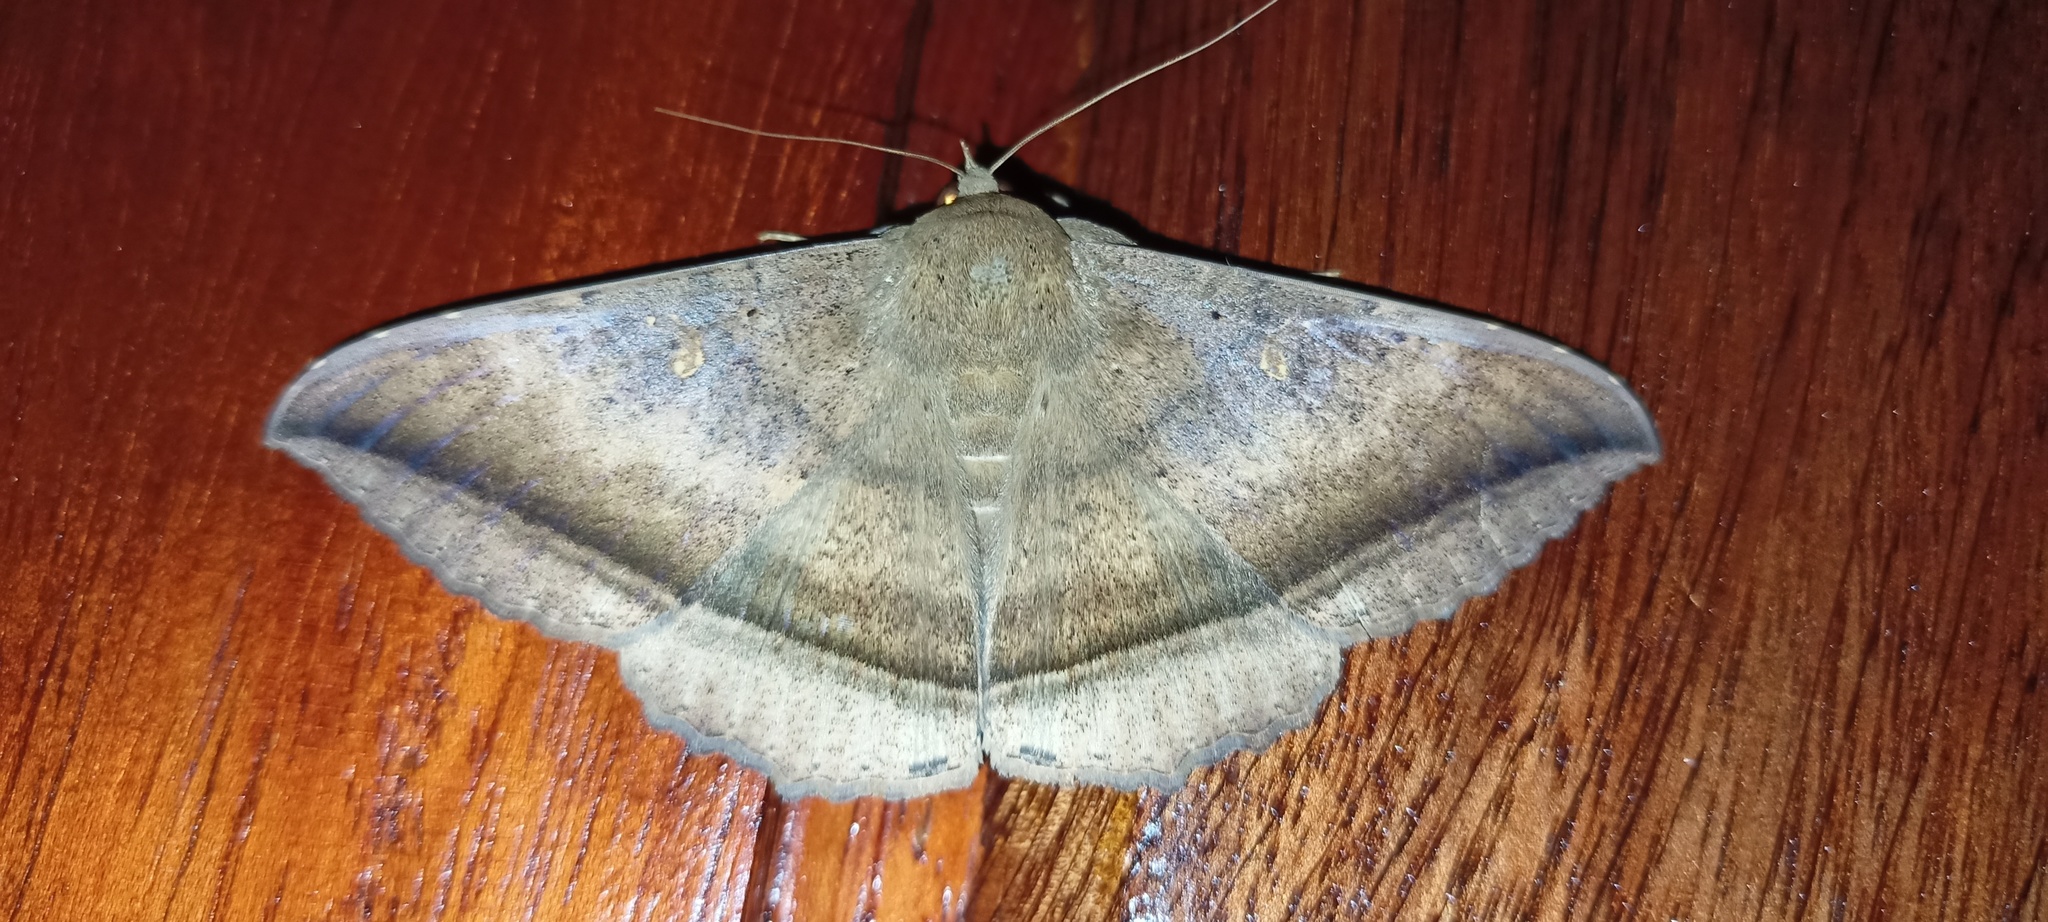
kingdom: Animalia
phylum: Arthropoda
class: Insecta
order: Lepidoptera
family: Erebidae
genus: Hulodes
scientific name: Hulodes caranea
